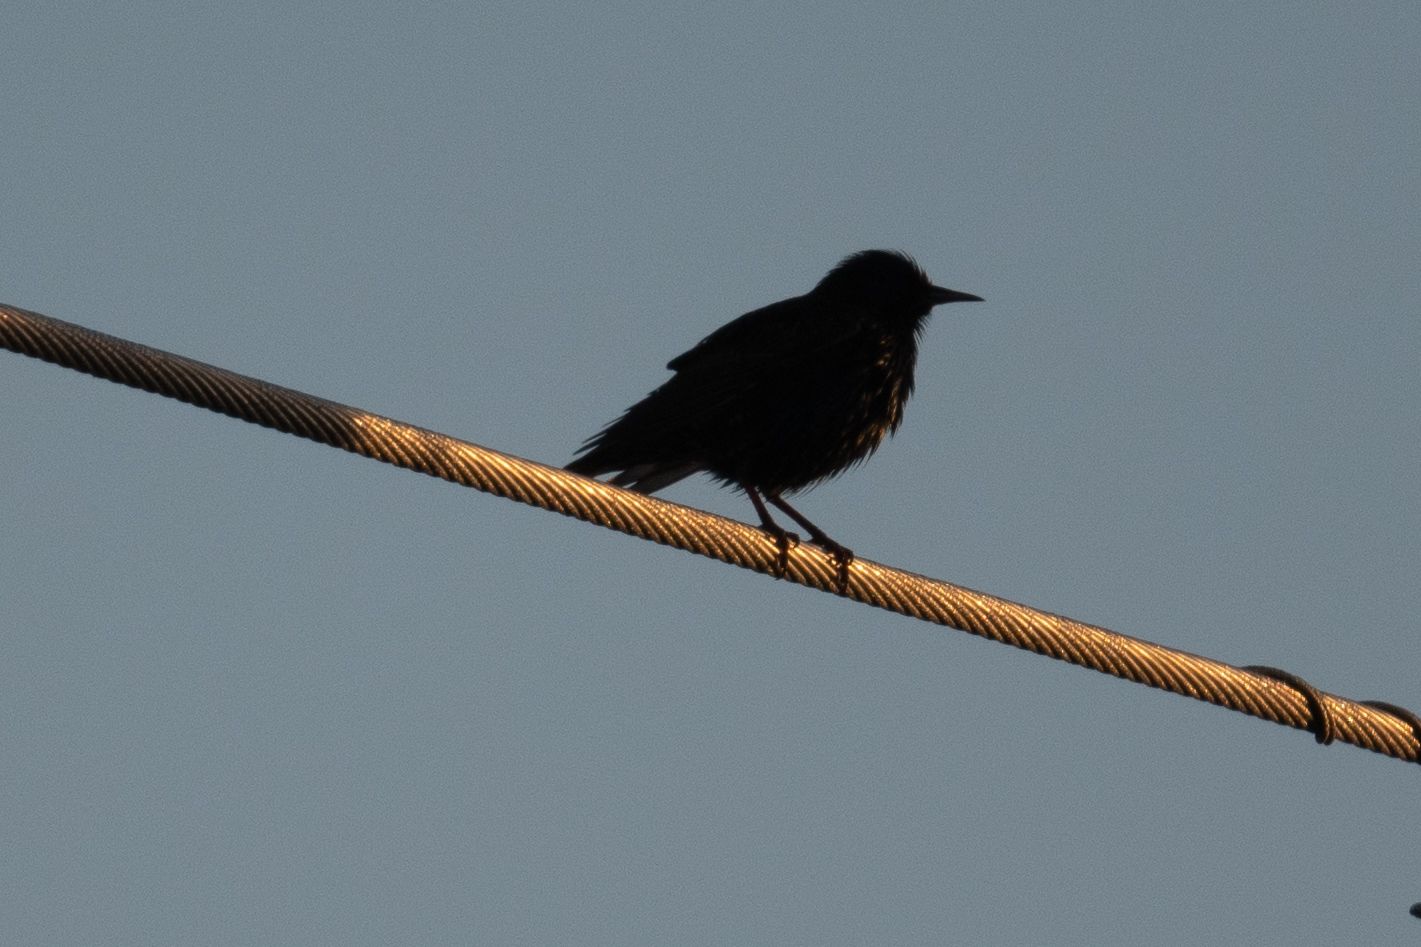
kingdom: Animalia
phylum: Chordata
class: Aves
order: Passeriformes
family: Sturnidae
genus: Sturnus
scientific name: Sturnus vulgaris
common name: Common starling
